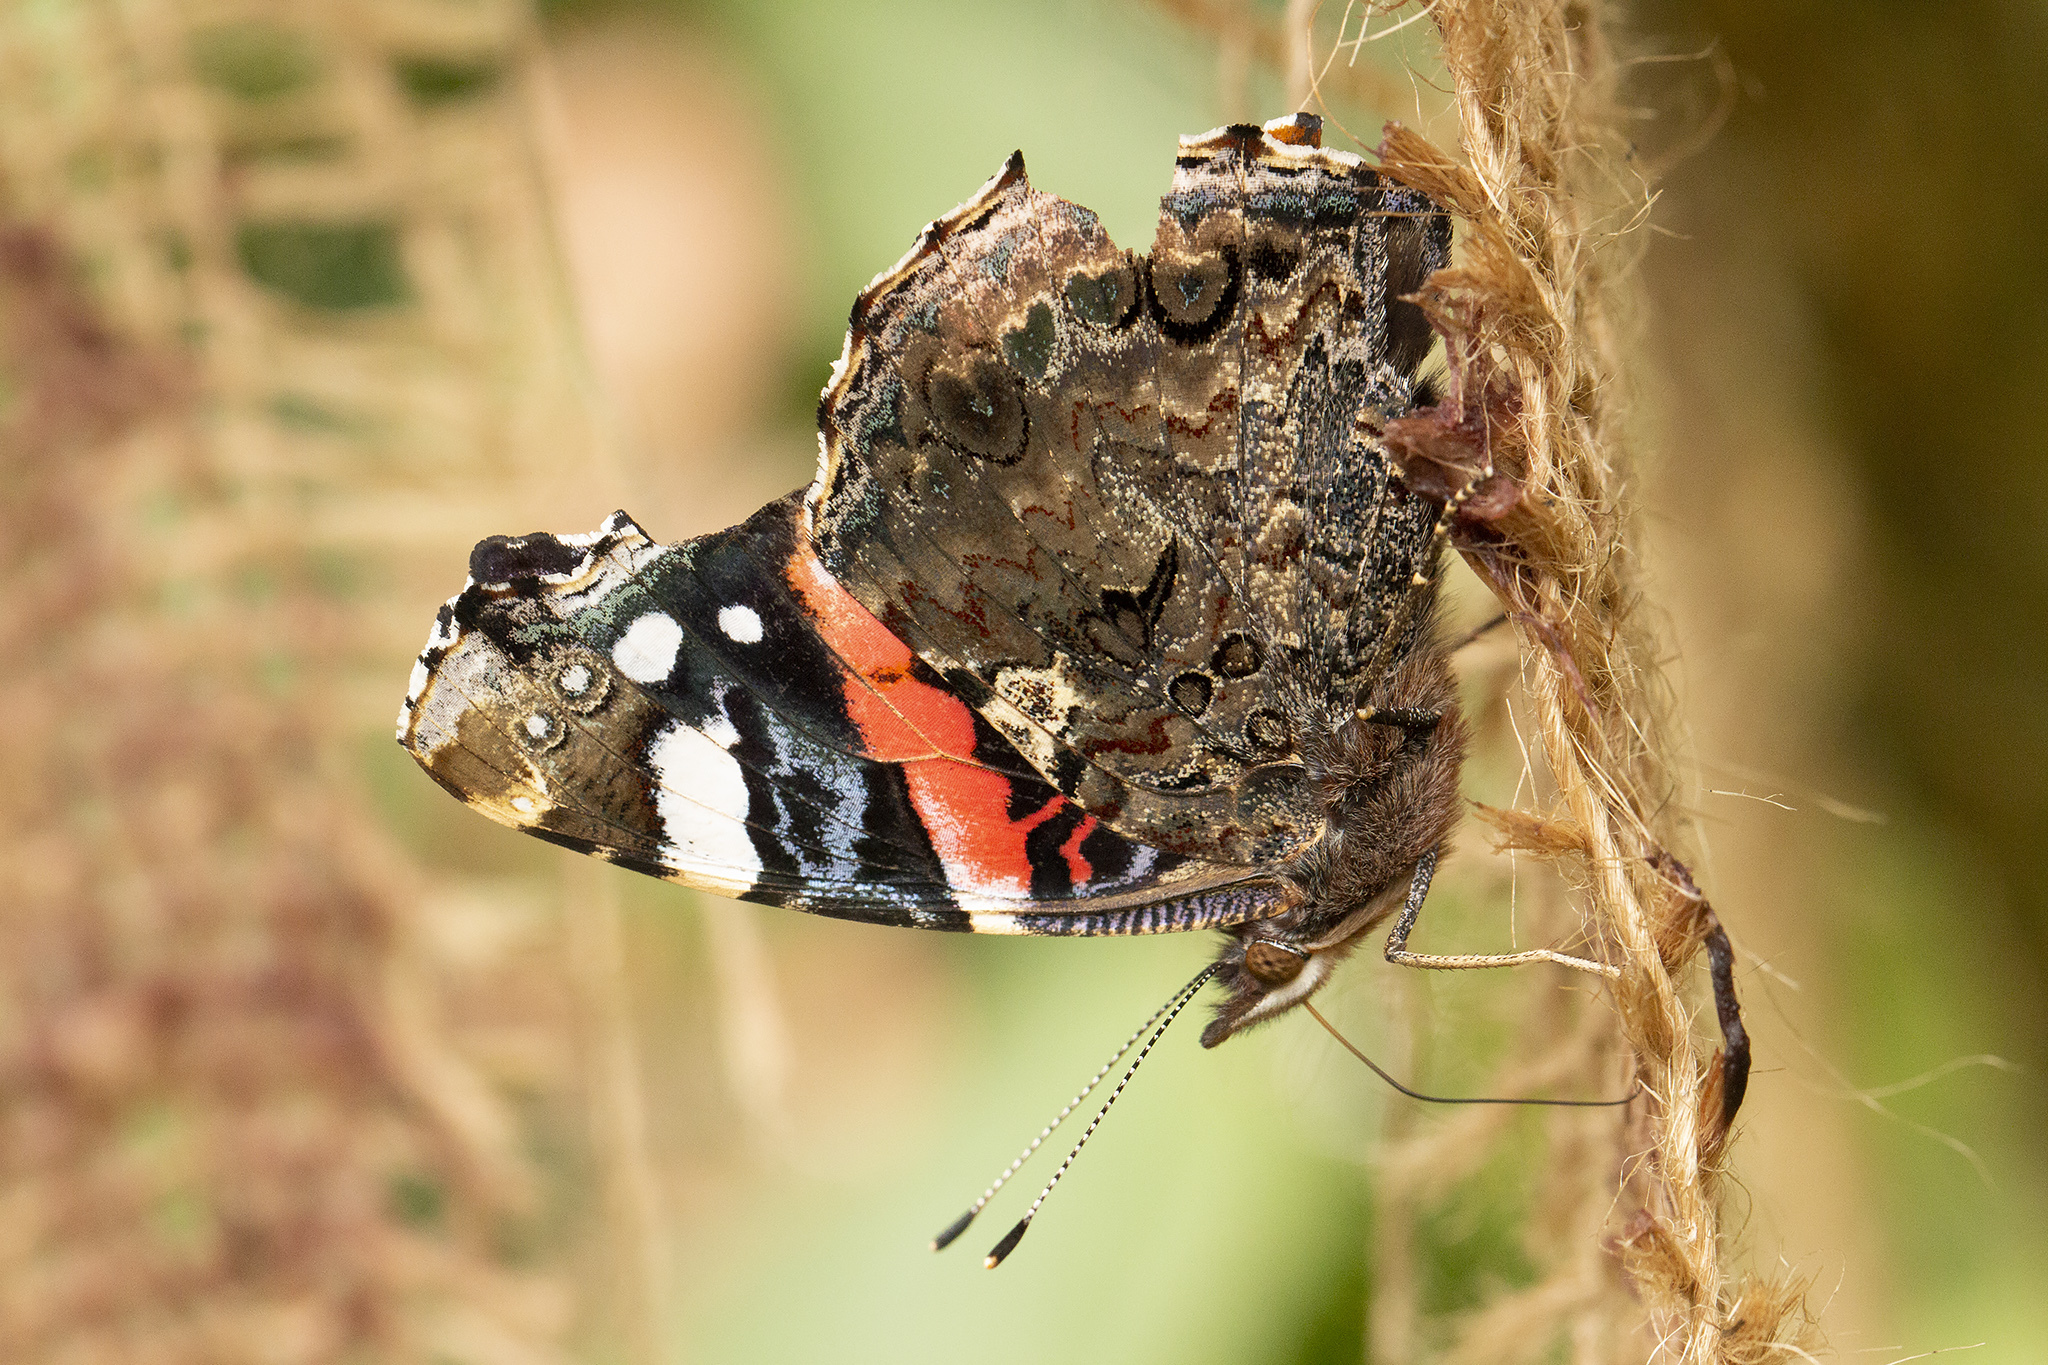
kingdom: Animalia
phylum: Arthropoda
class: Insecta
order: Lepidoptera
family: Nymphalidae
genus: Vanessa
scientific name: Vanessa atalanta
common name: Red admiral
